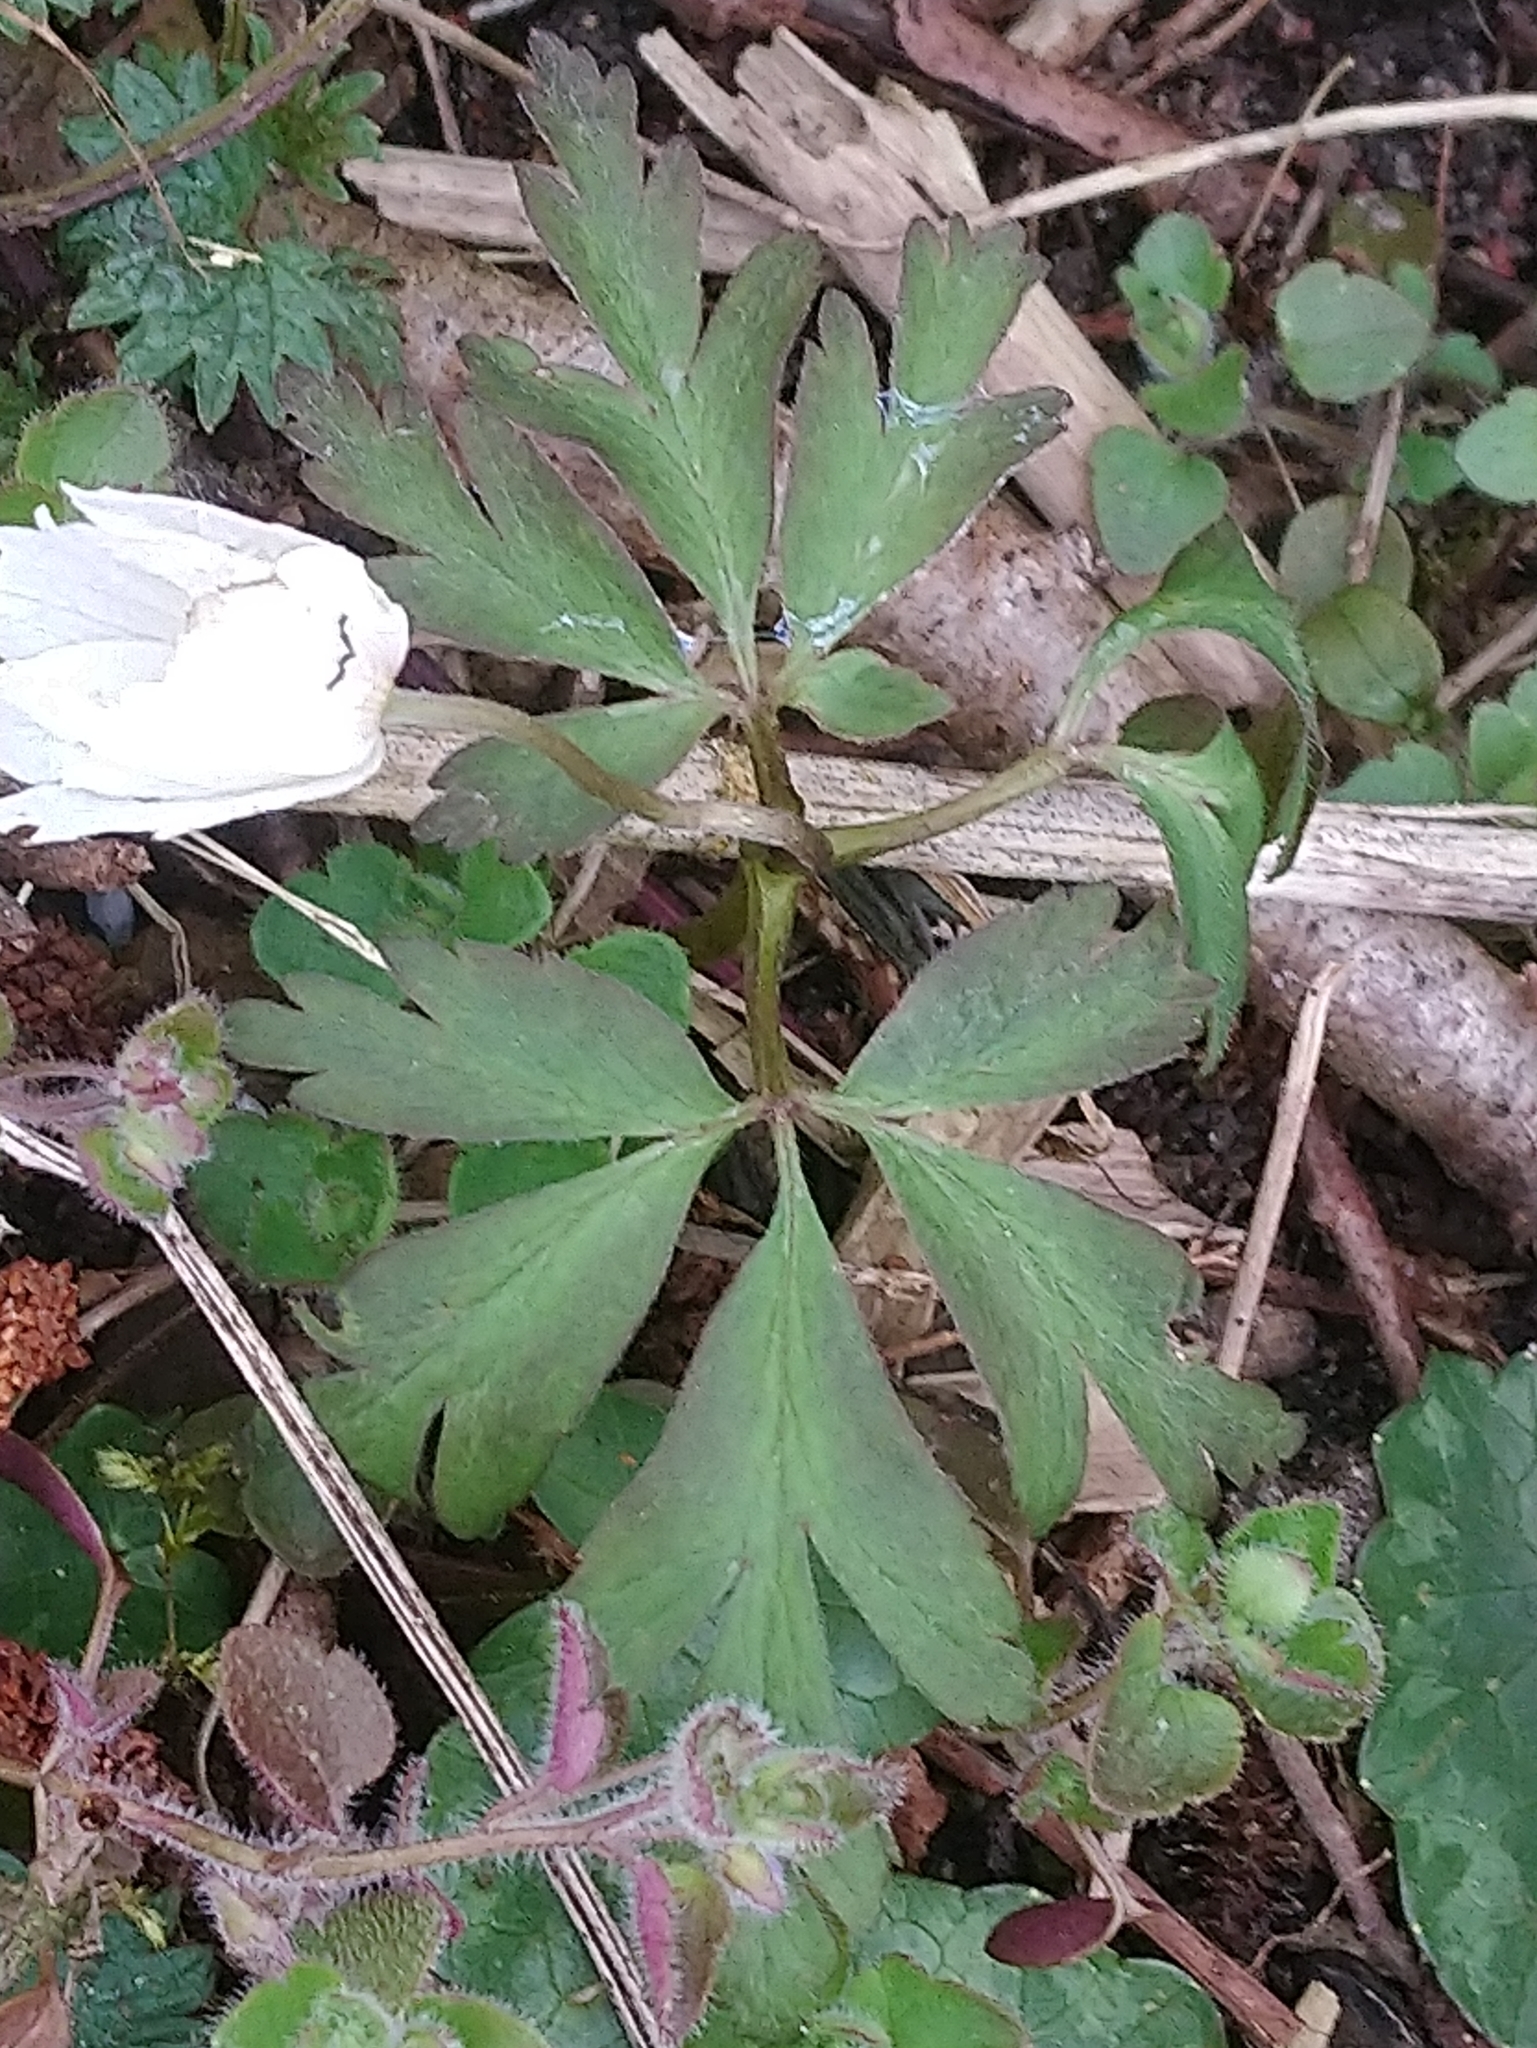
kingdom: Plantae
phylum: Tracheophyta
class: Magnoliopsida
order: Ranunculales
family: Ranunculaceae
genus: Anemone
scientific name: Anemone nemorosa
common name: Wood anemone
